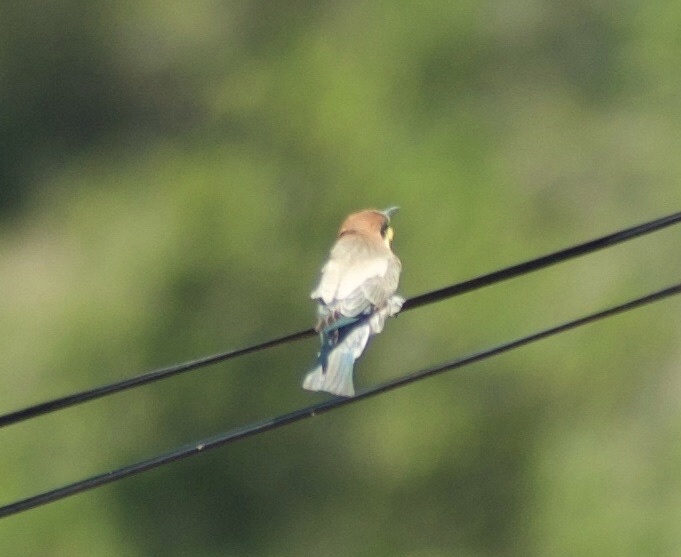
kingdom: Animalia
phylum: Chordata
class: Aves
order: Coraciiformes
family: Meropidae
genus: Merops
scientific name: Merops apiaster
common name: European bee-eater
